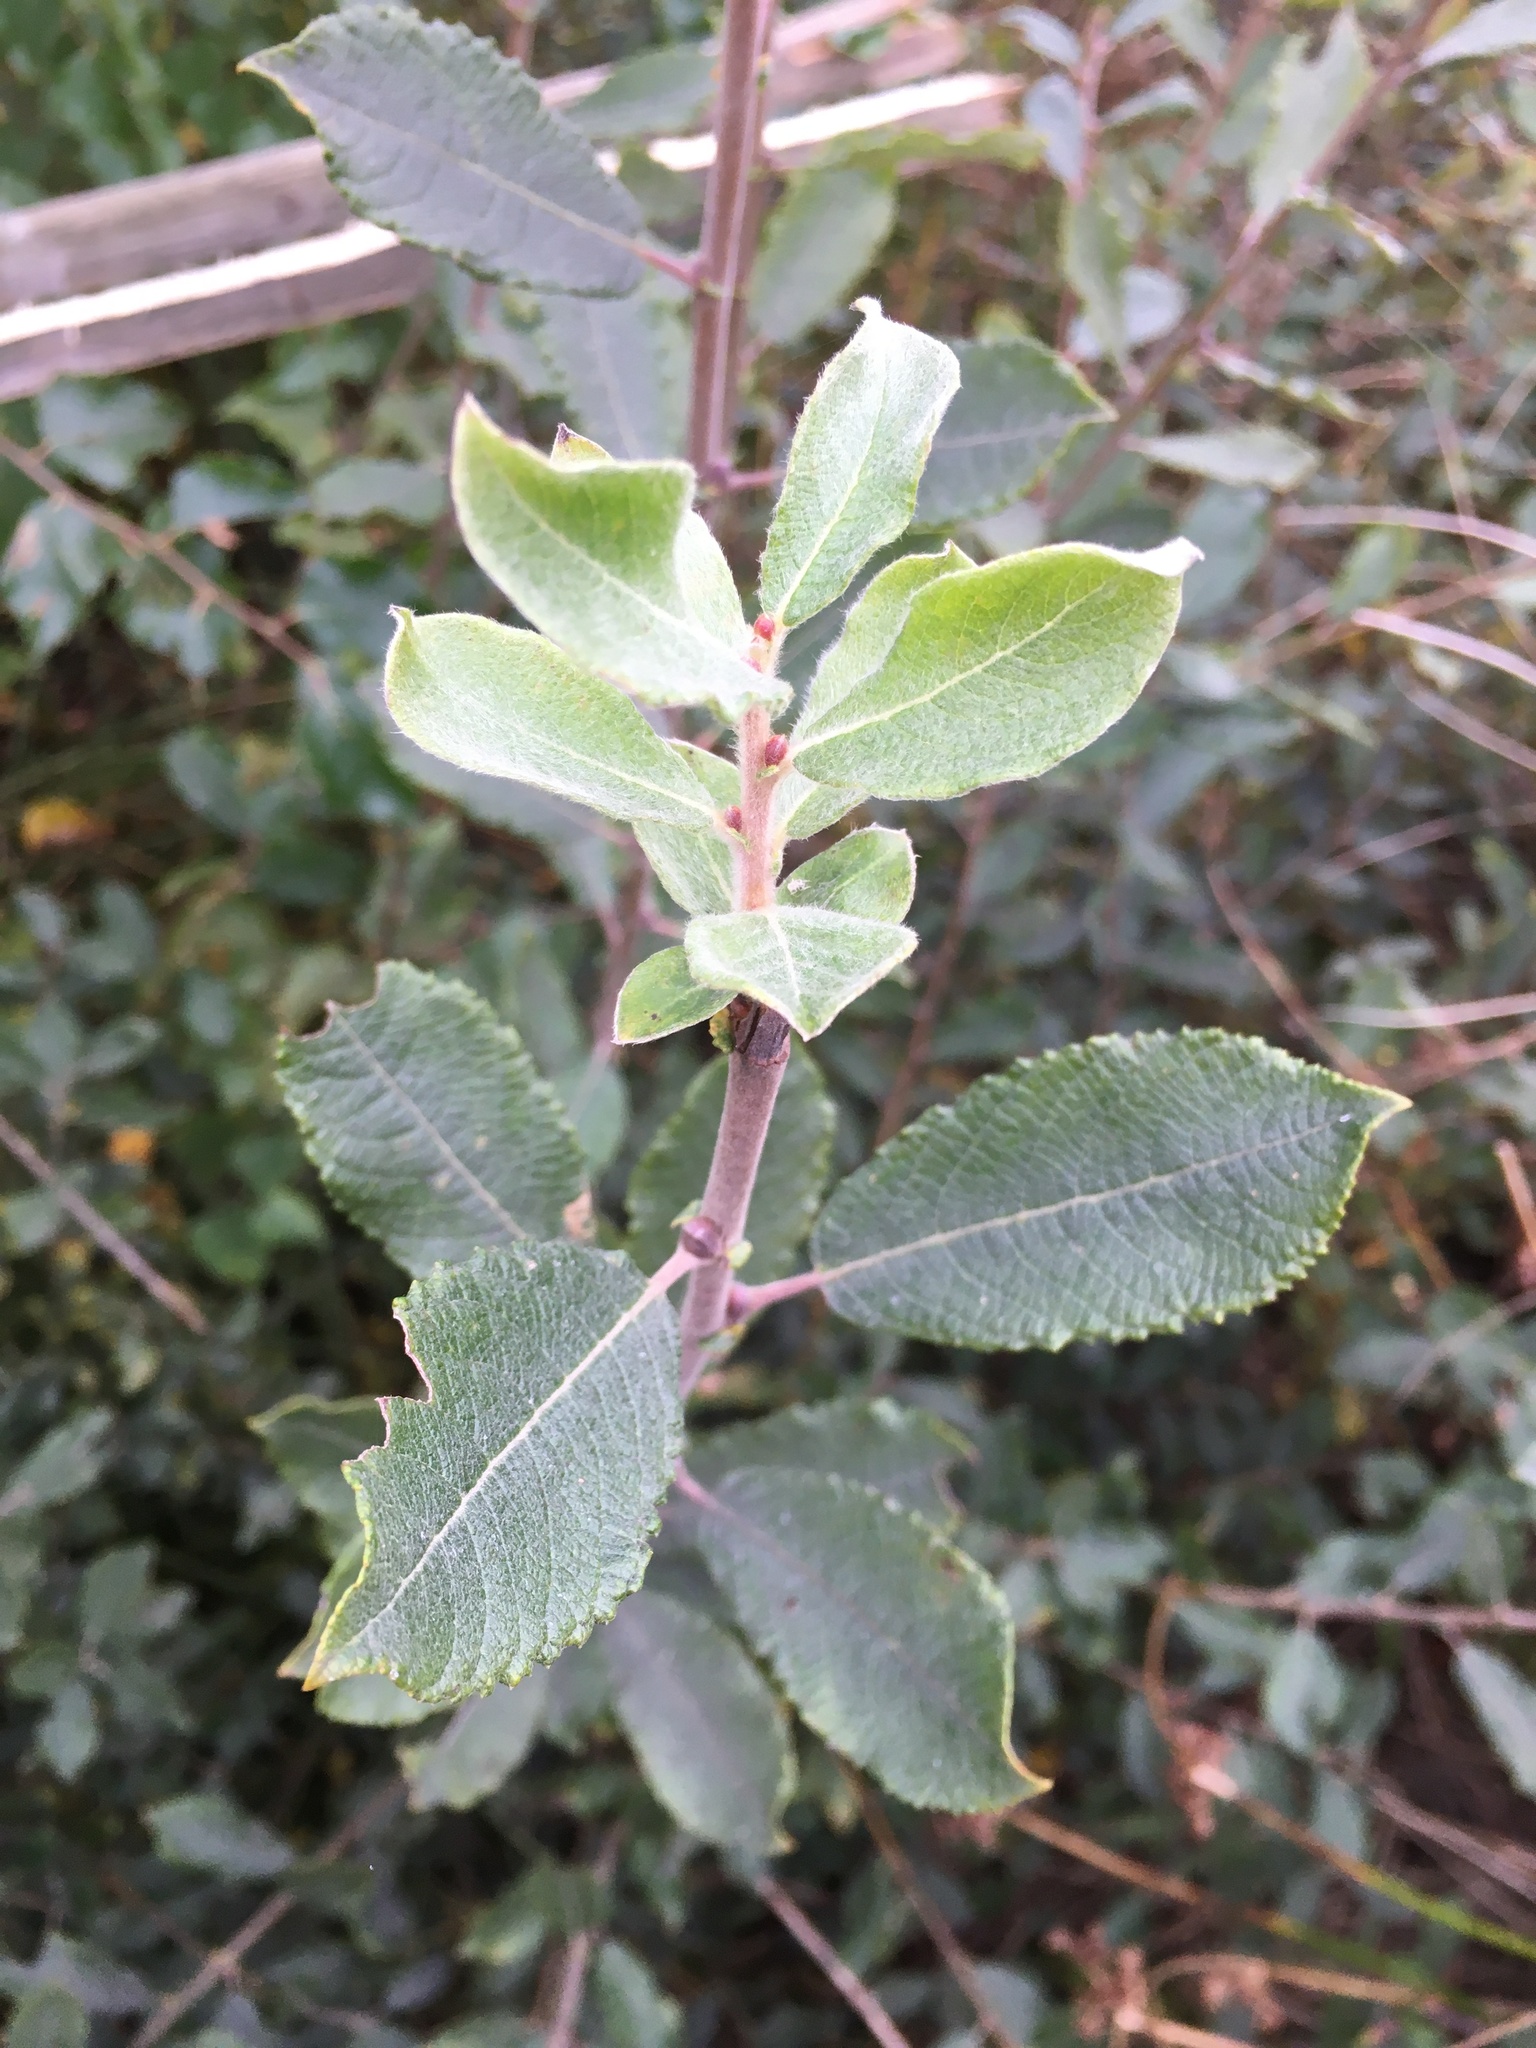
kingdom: Plantae
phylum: Tracheophyta
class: Magnoliopsida
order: Malpighiales
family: Salicaceae
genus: Salix
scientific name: Salix cinerea
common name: Common sallow
